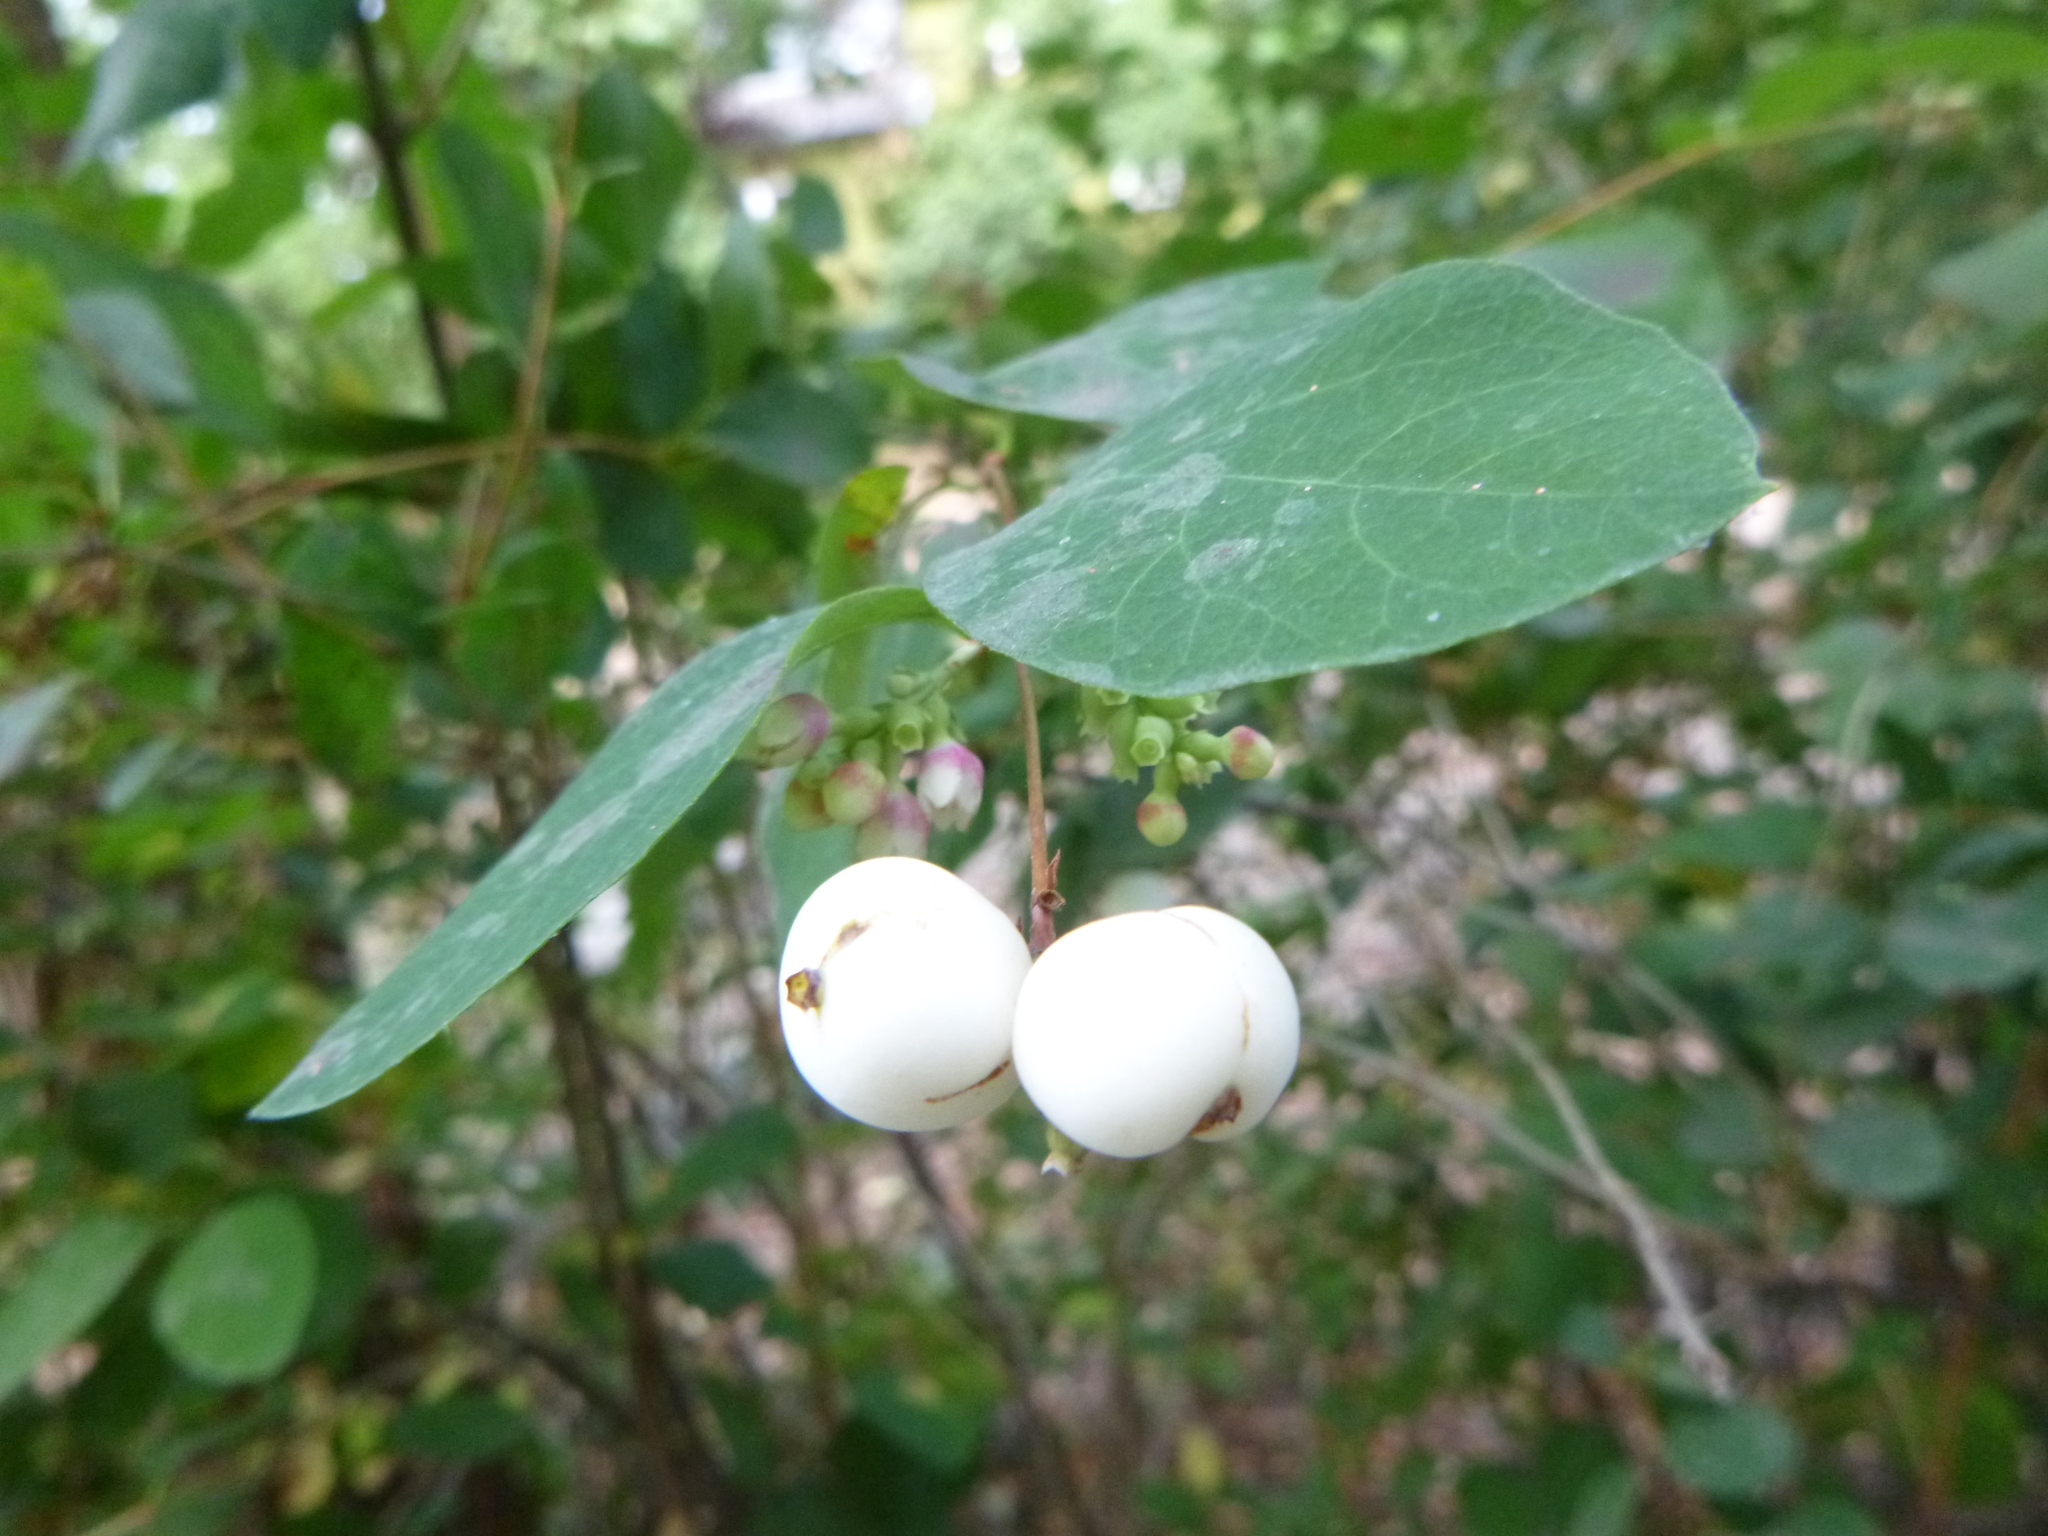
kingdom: Plantae
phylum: Tracheophyta
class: Magnoliopsida
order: Dipsacales
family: Caprifoliaceae
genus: Symphoricarpos
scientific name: Symphoricarpos albus
